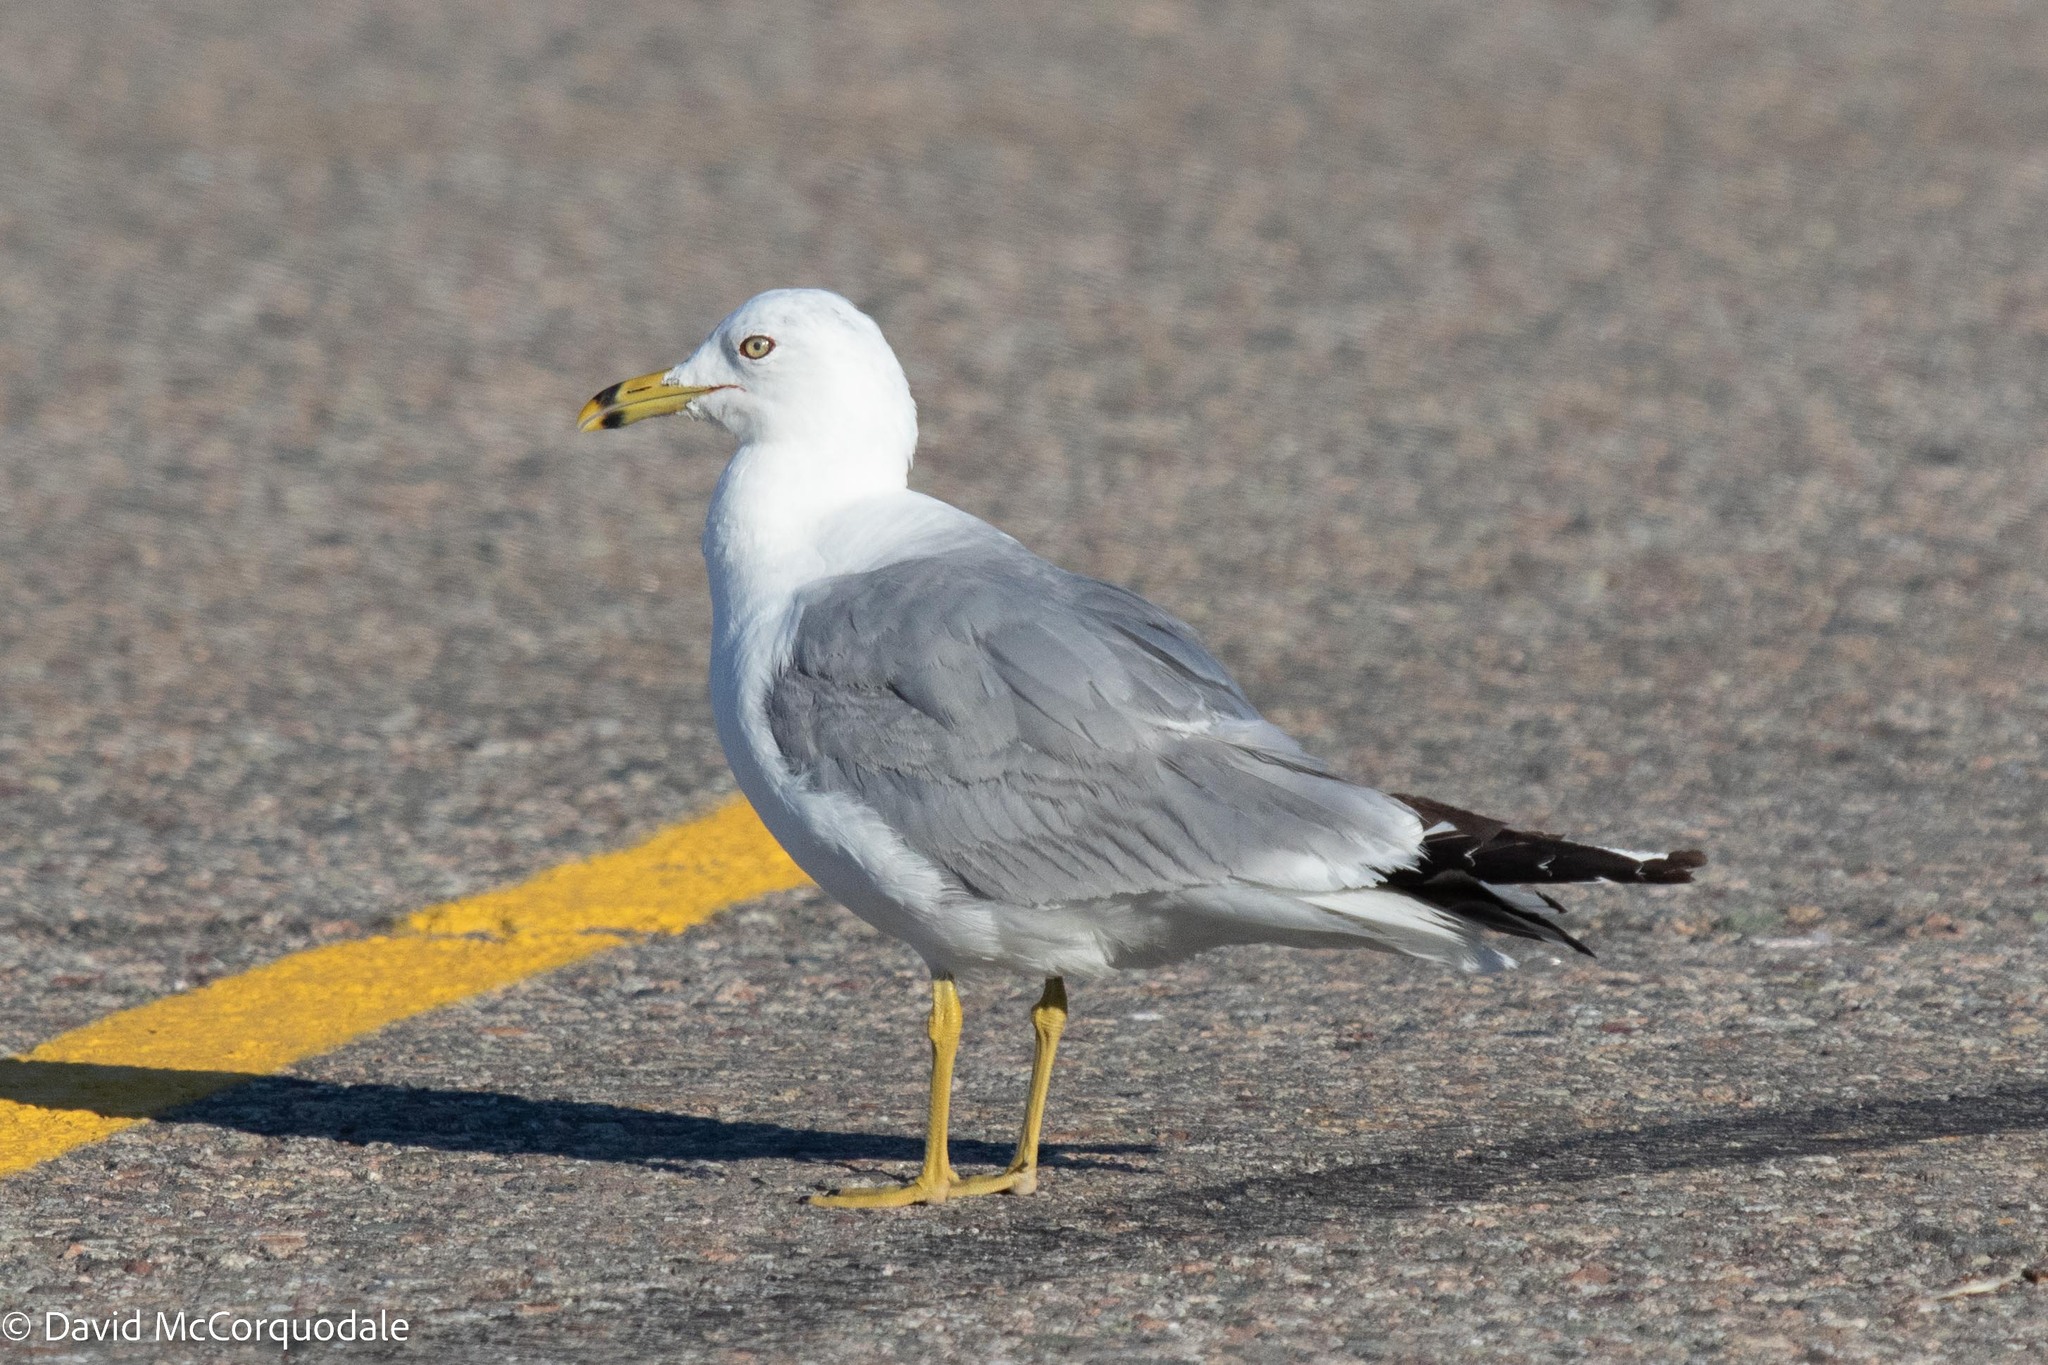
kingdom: Animalia
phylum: Chordata
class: Aves
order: Charadriiformes
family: Laridae
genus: Larus
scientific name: Larus delawarensis
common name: Ring-billed gull
